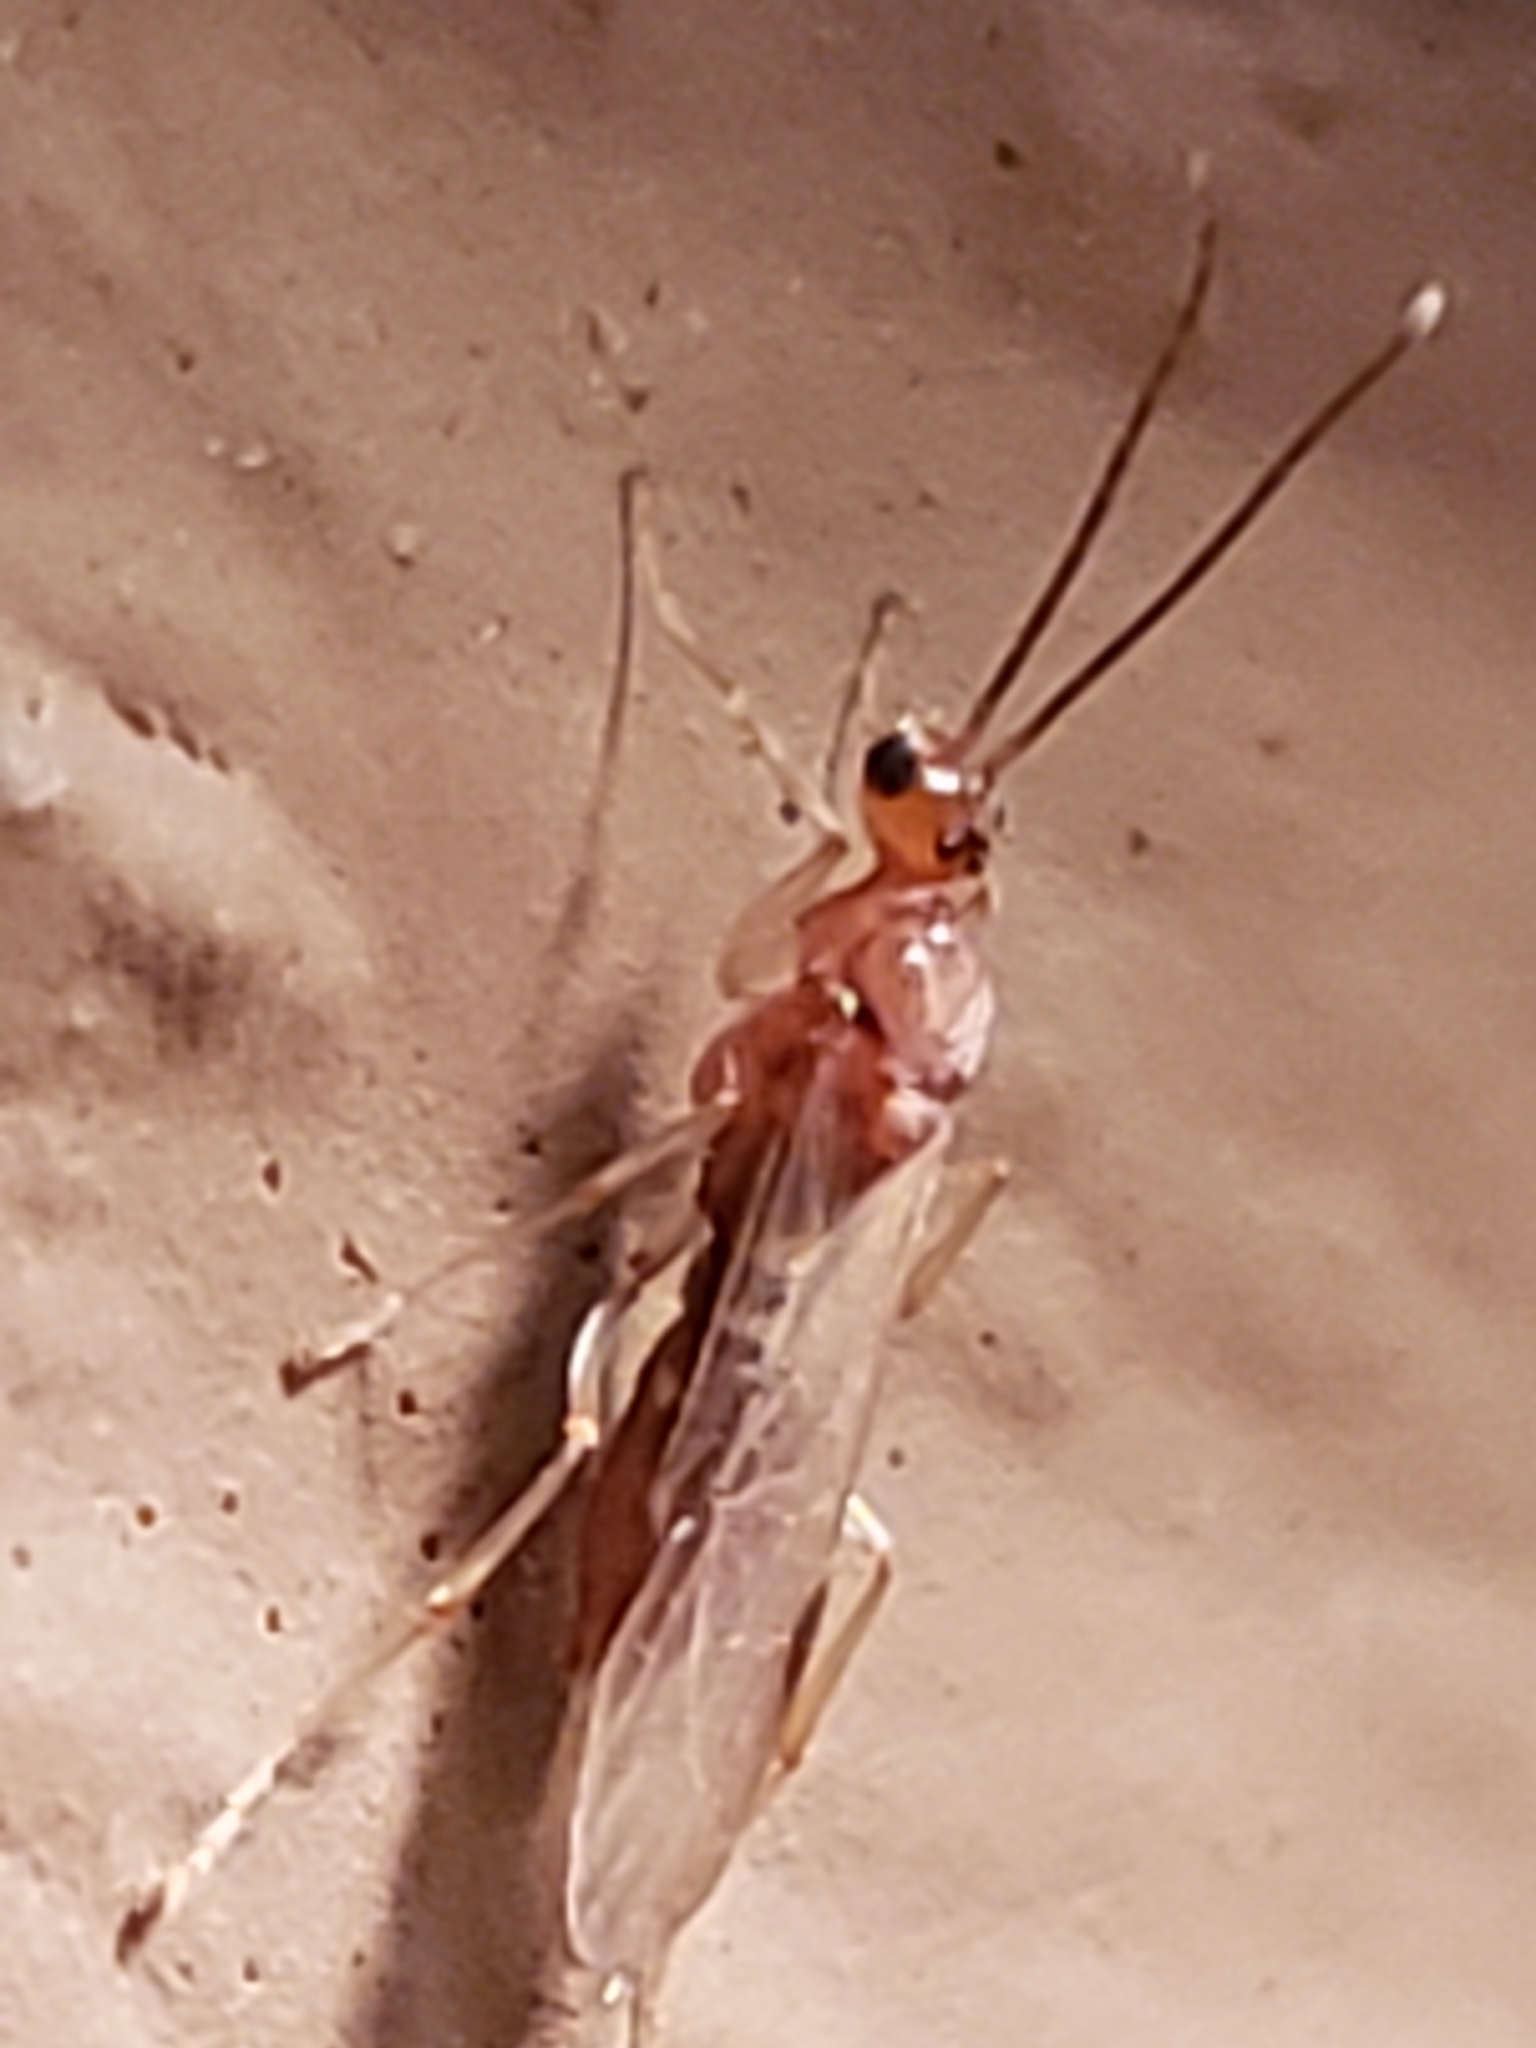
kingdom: Animalia
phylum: Arthropoda
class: Insecta
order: Hymenoptera
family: Formicidae
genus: Pachycondyla
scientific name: Pachycondyla chinensis
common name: Asian needle ant
